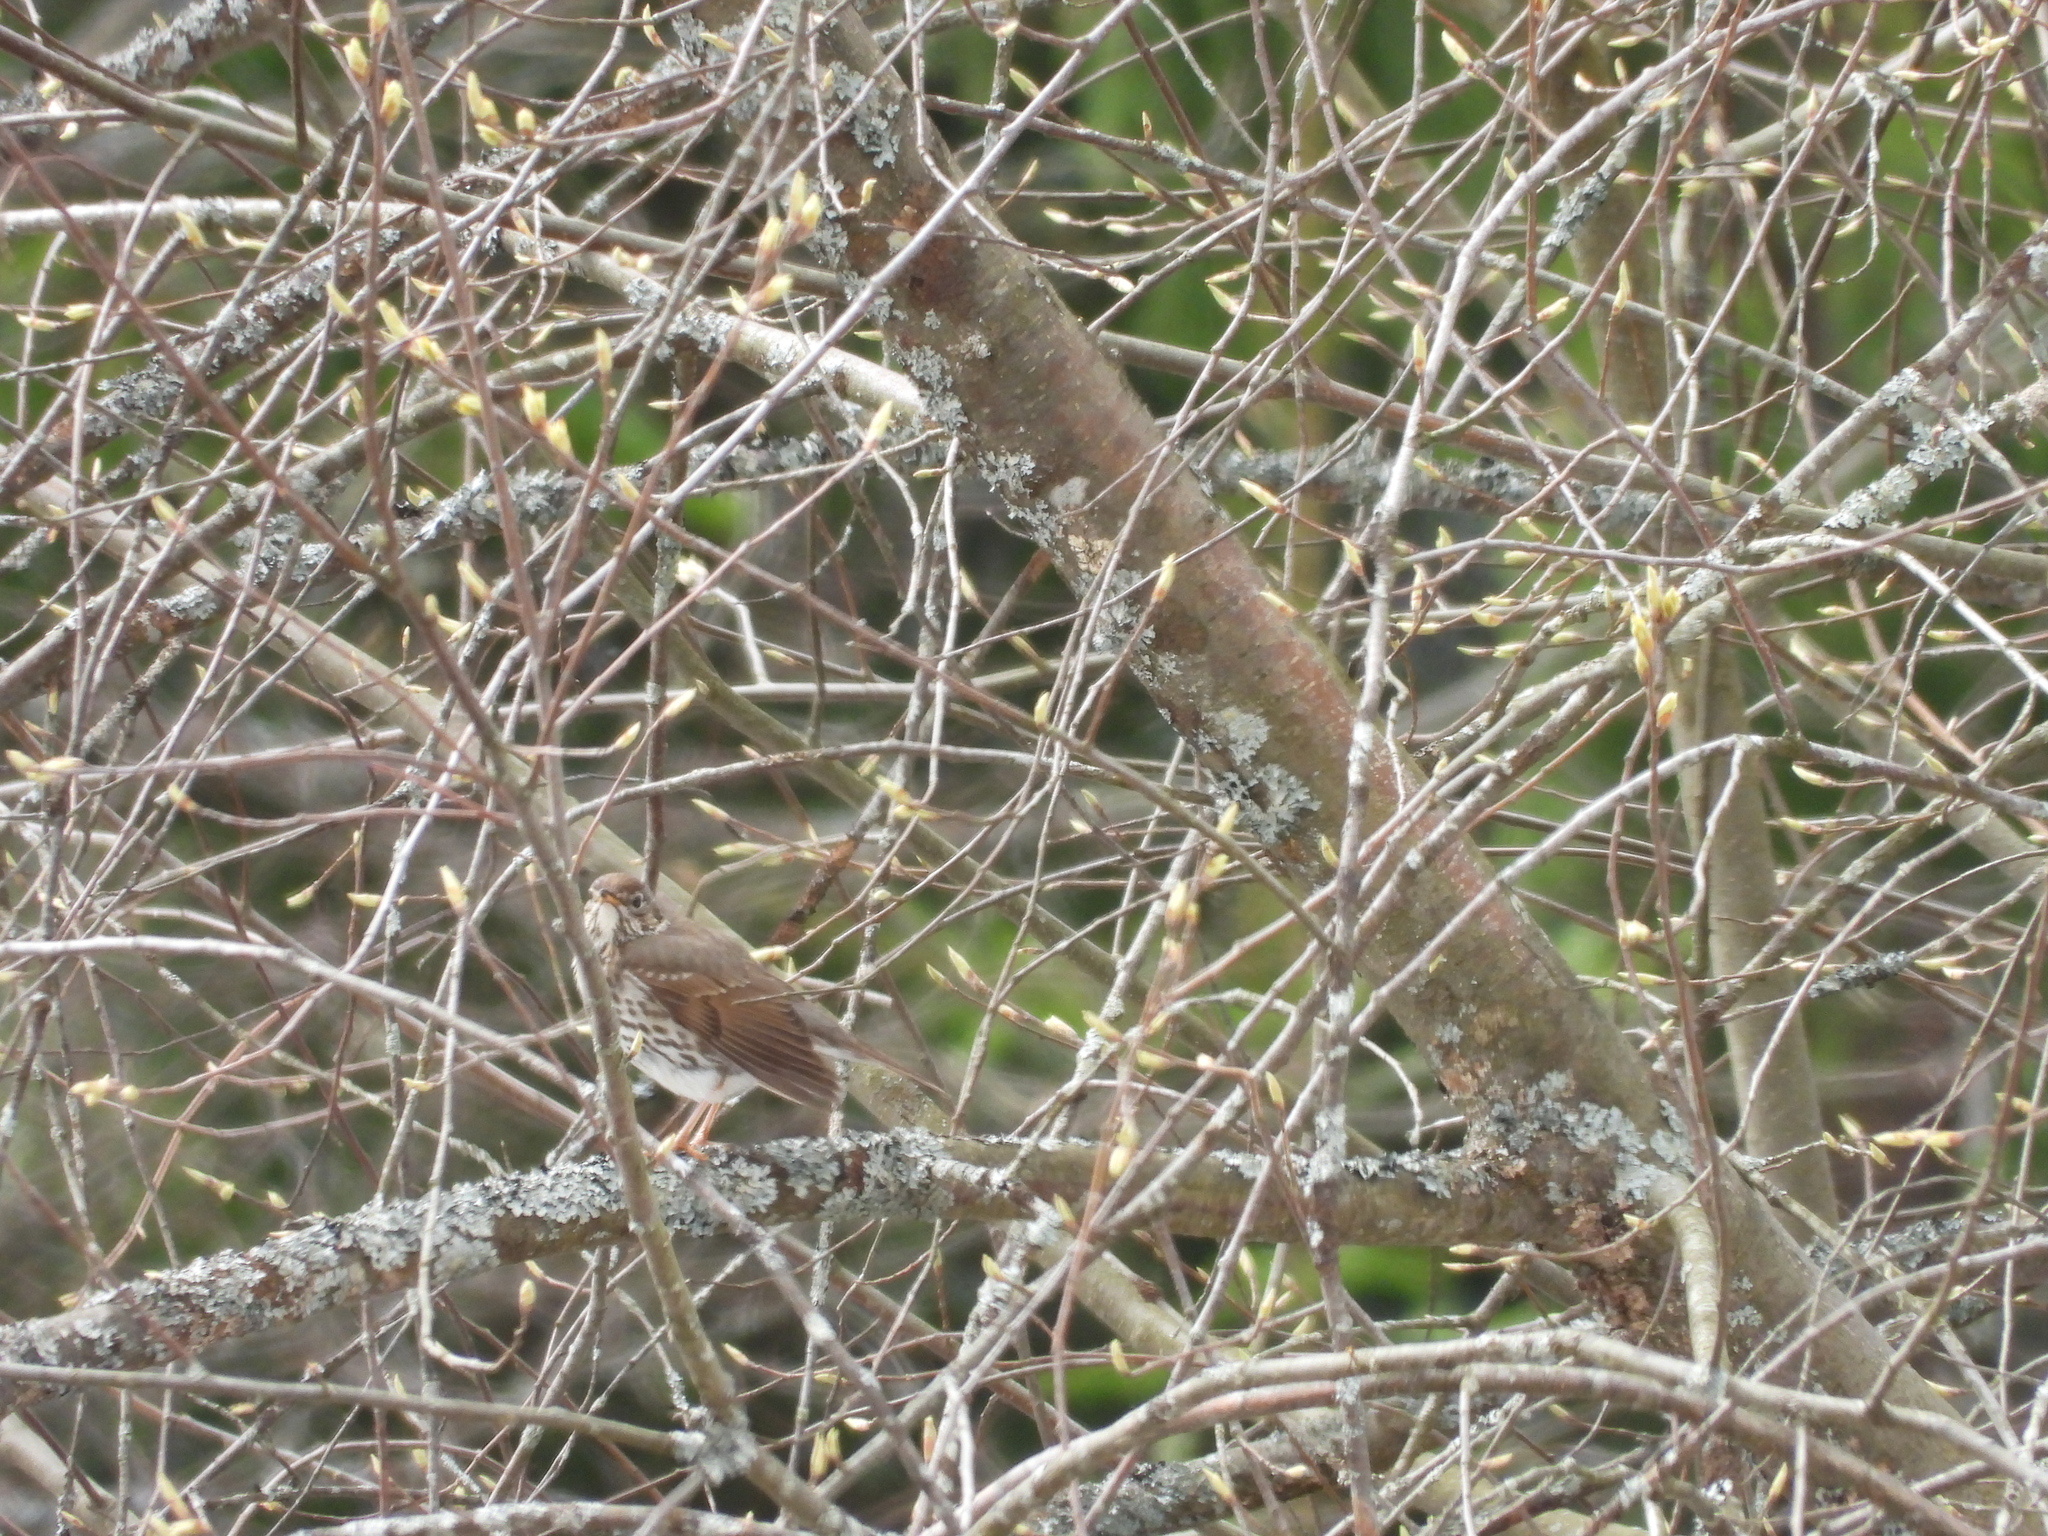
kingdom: Animalia
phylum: Chordata
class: Aves
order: Passeriformes
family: Turdidae
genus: Turdus
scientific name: Turdus philomelos
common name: Song thrush
